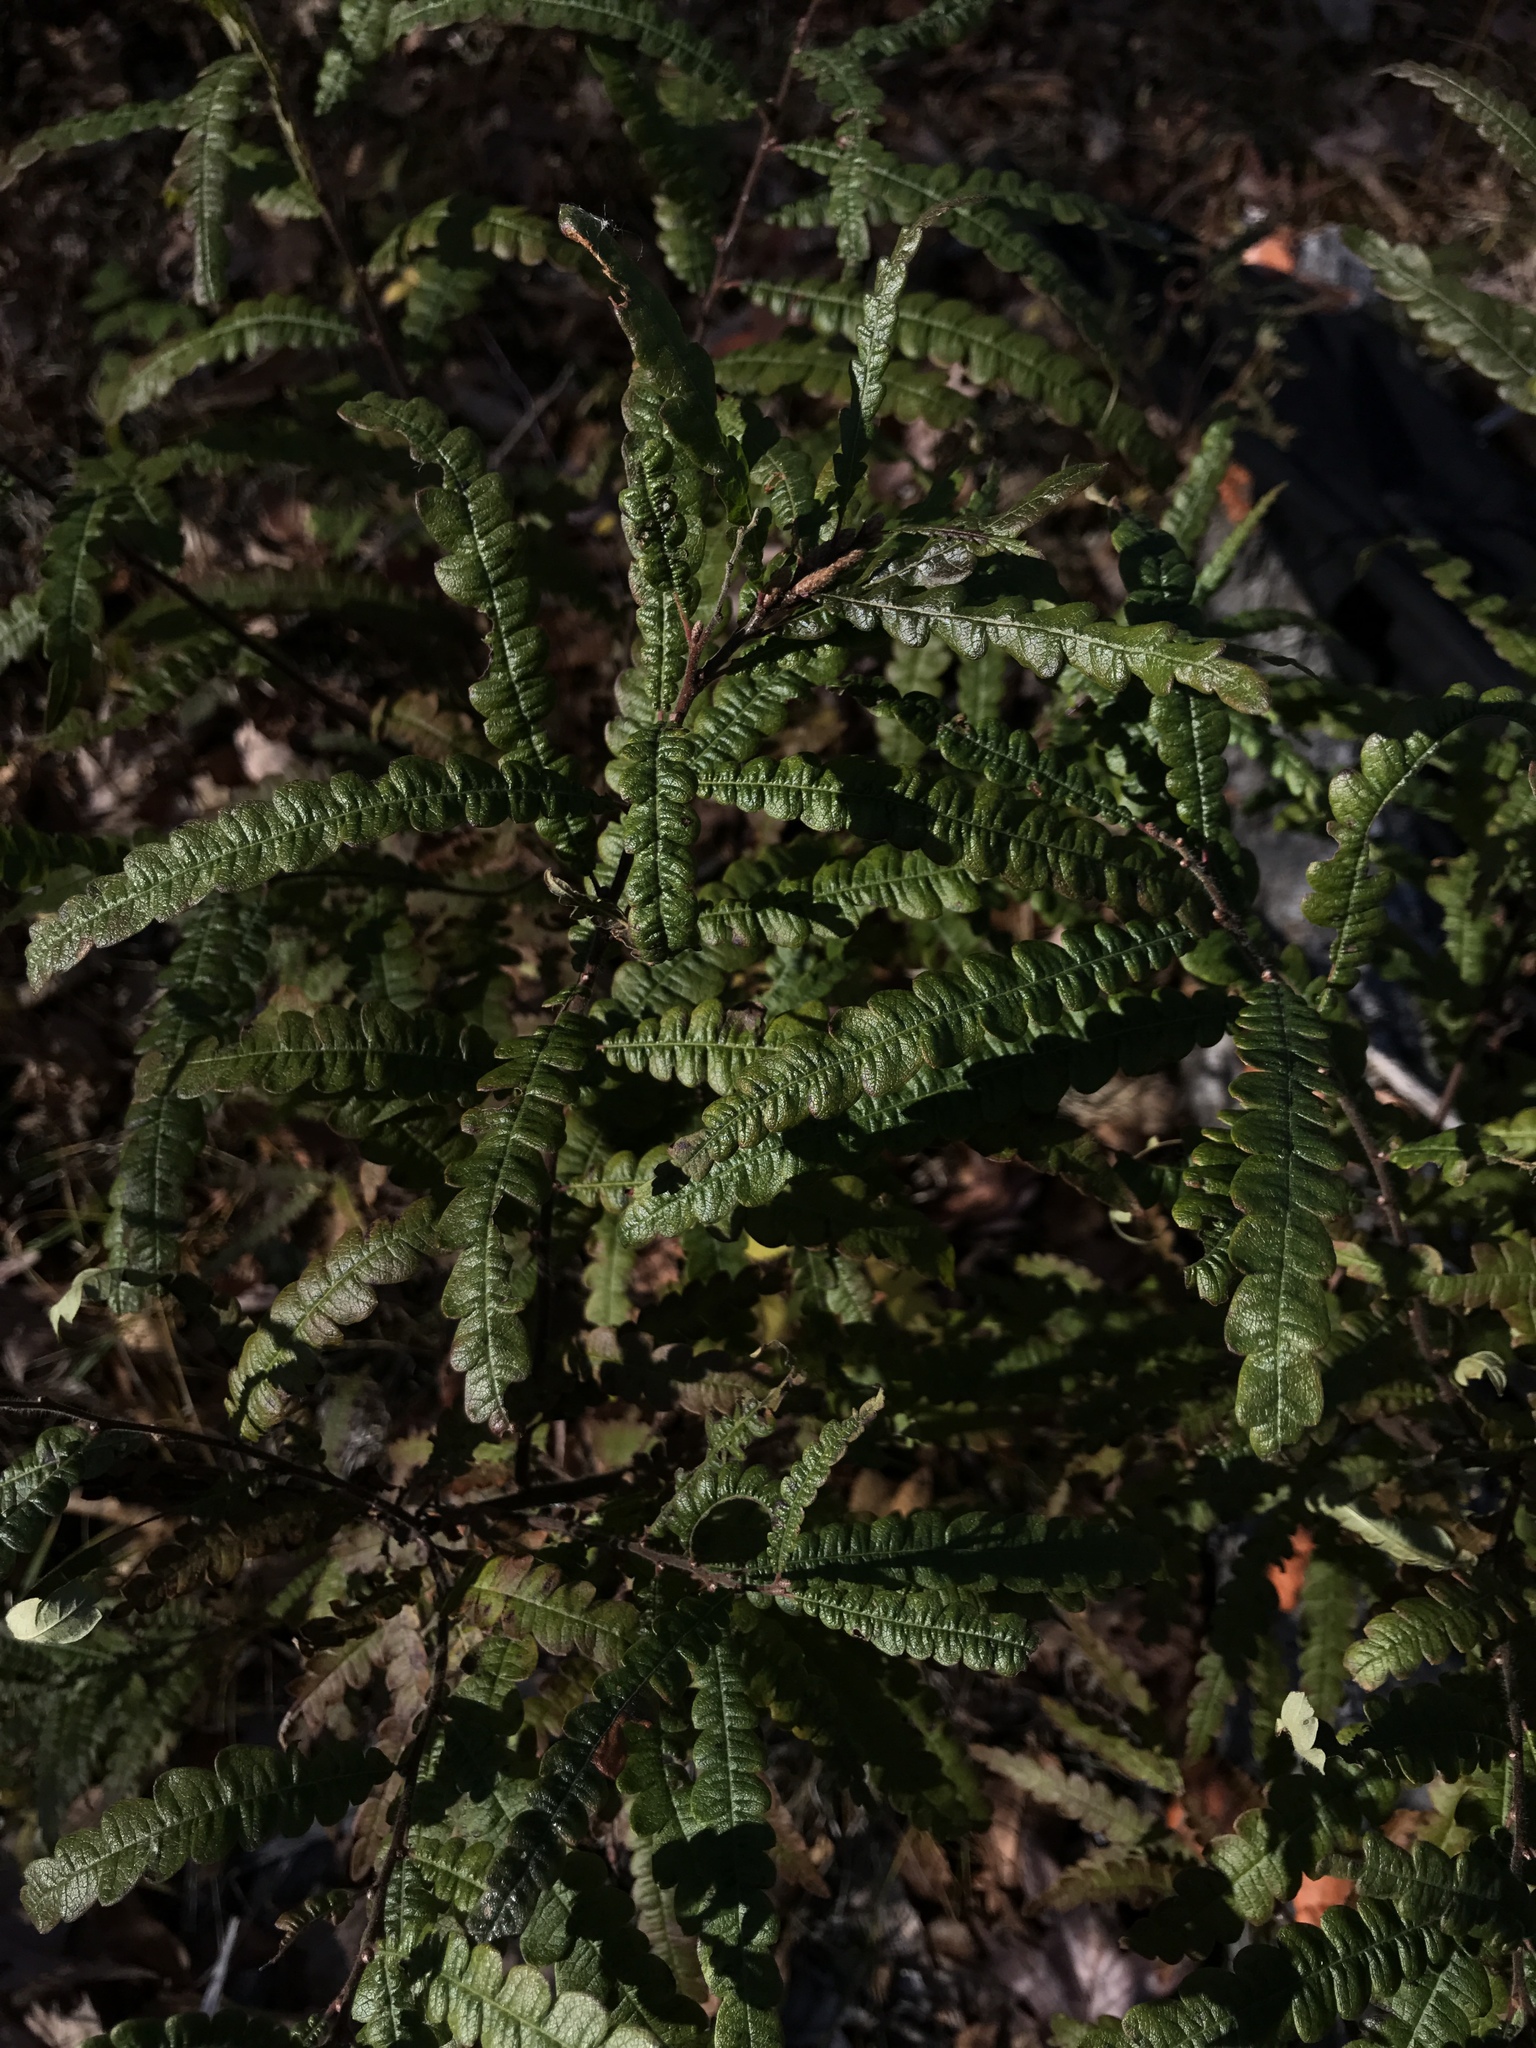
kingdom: Plantae
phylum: Tracheophyta
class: Magnoliopsida
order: Fagales
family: Myricaceae
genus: Comptonia
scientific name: Comptonia peregrina
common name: Sweet-fern
